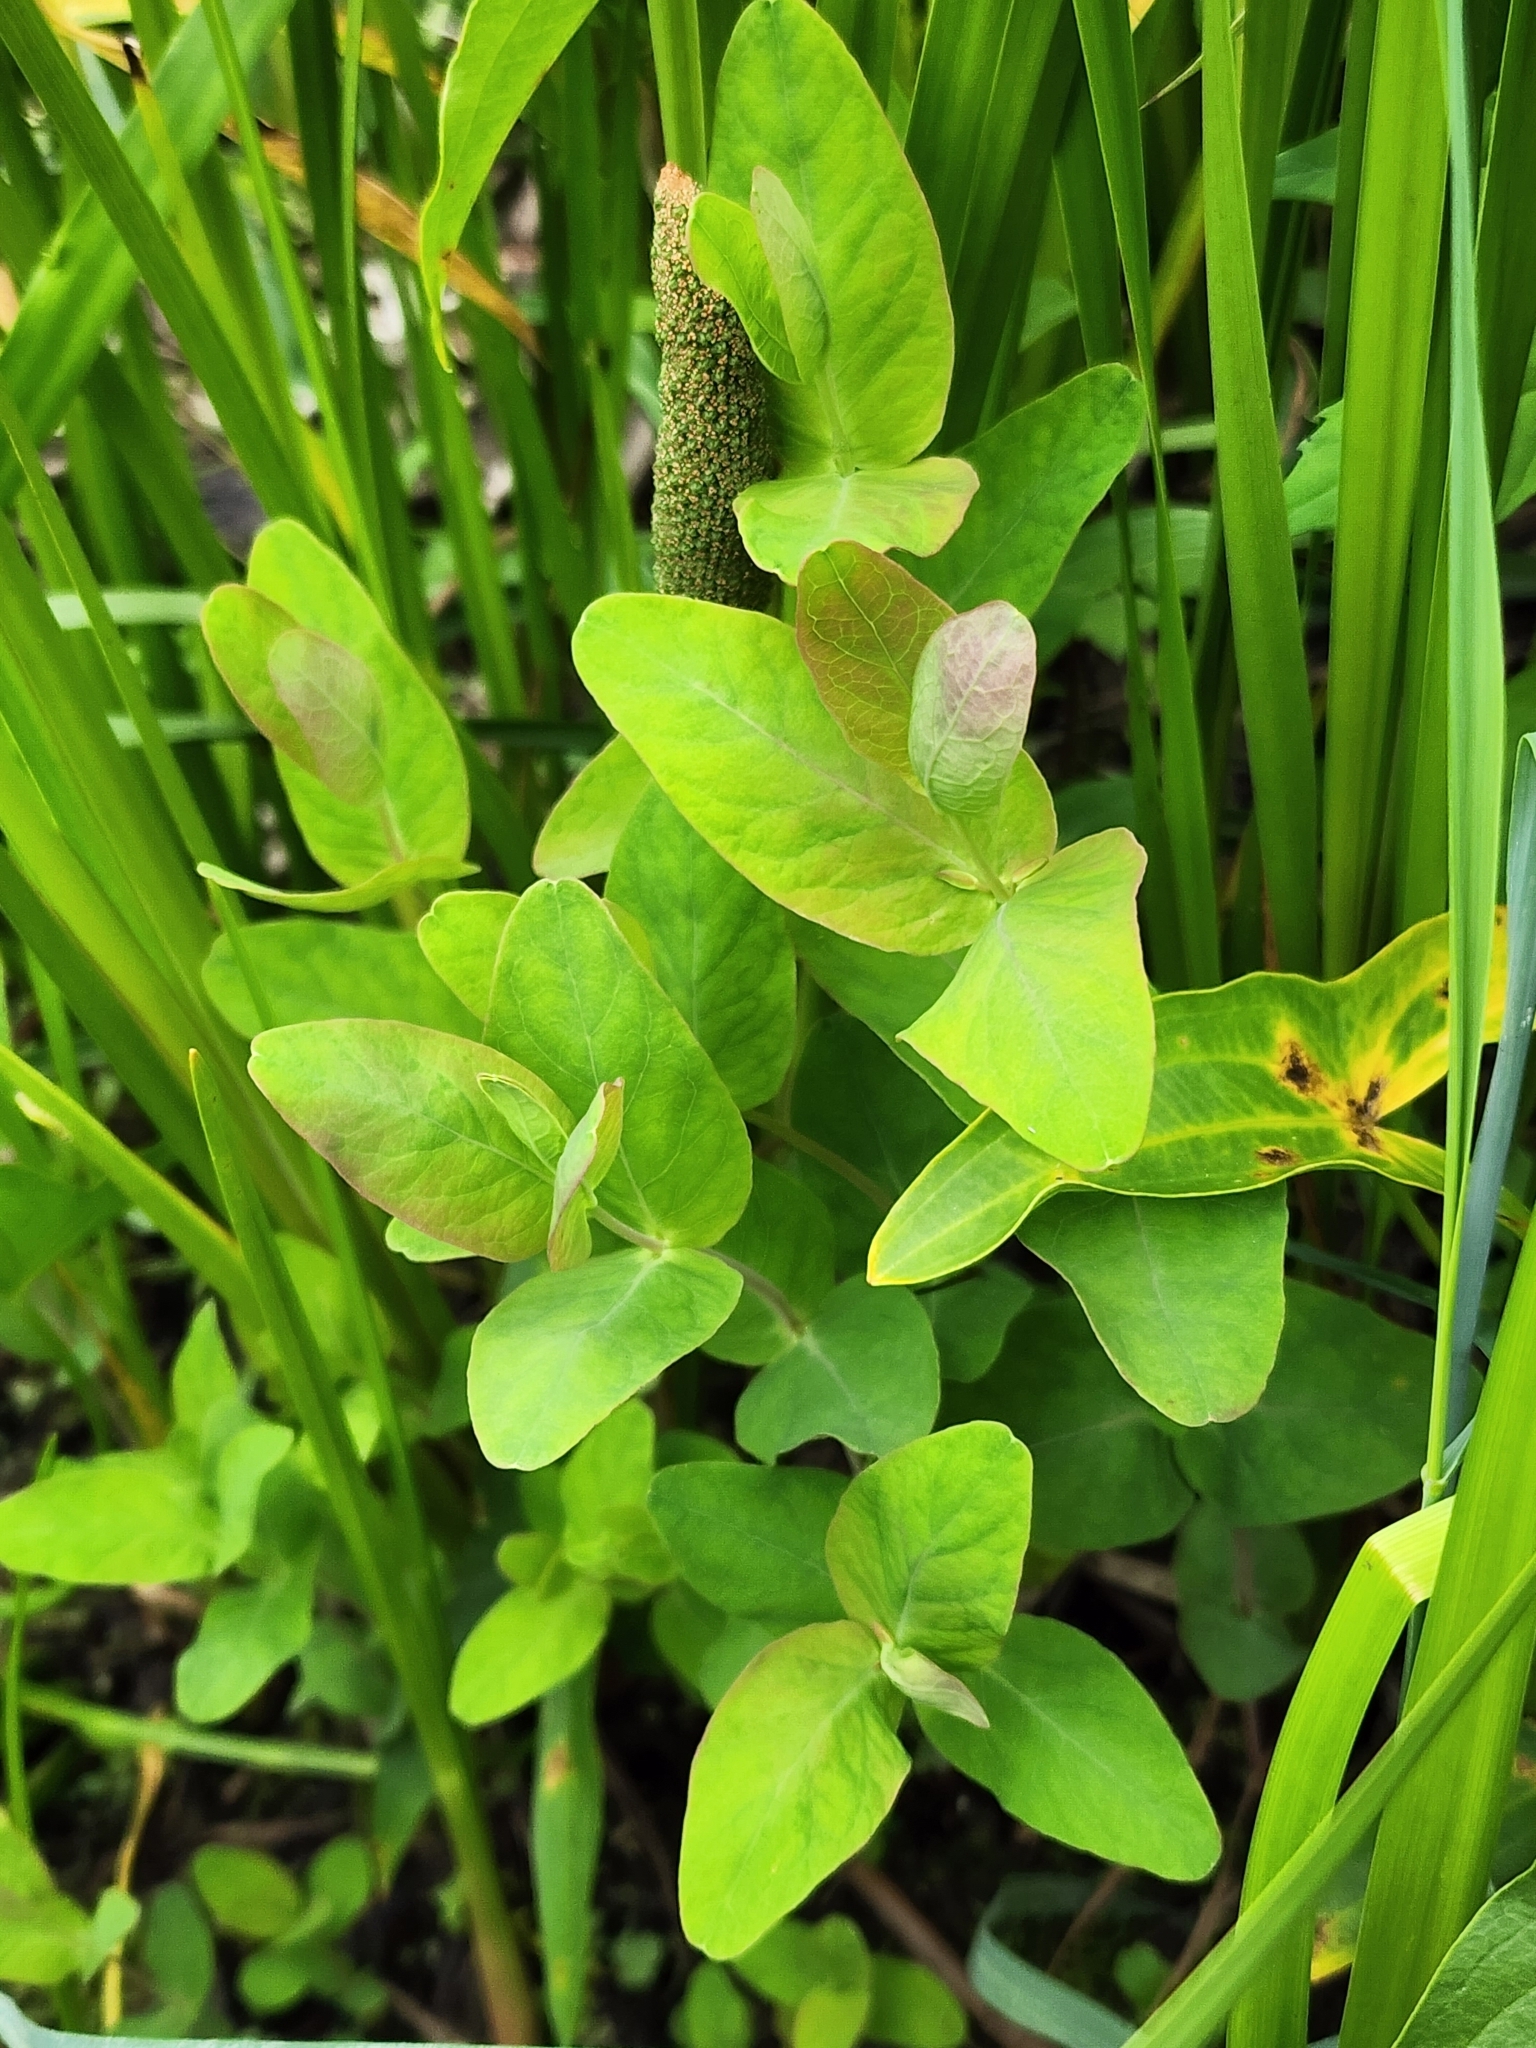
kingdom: Plantae
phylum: Tracheophyta
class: Magnoliopsida
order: Malpighiales
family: Hypericaceae
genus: Triadenum
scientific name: Triadenum fraseri
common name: Fraser's marsh st. johnswort
